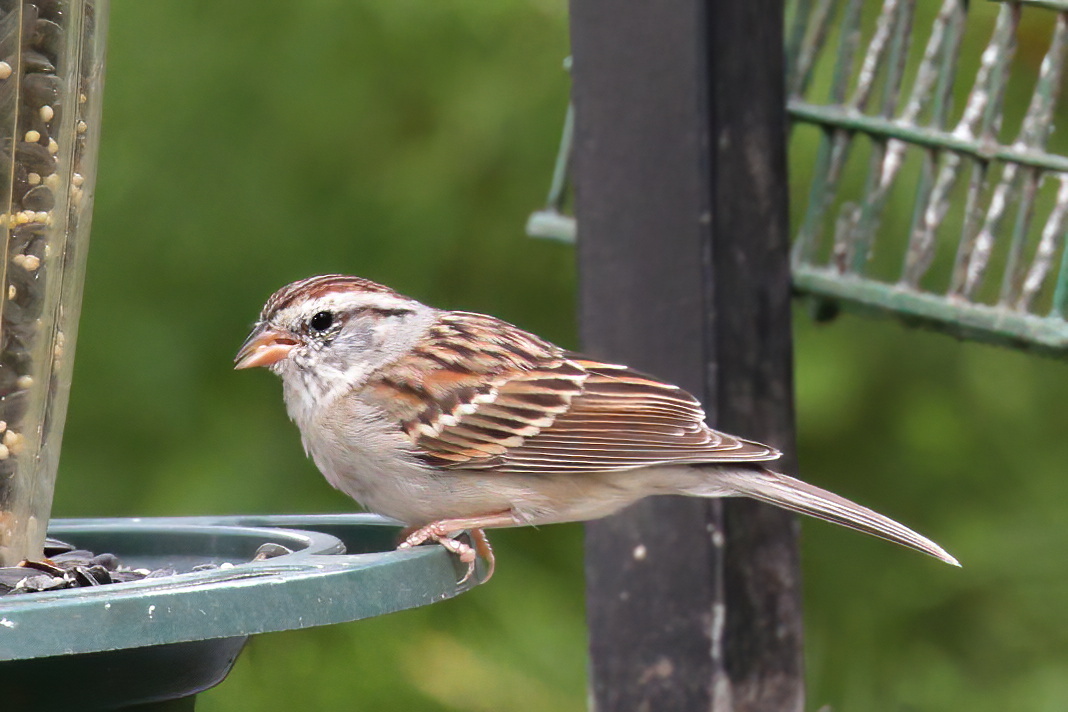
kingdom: Animalia
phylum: Chordata
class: Aves
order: Passeriformes
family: Passerellidae
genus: Spizella
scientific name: Spizella passerina
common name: Chipping sparrow
